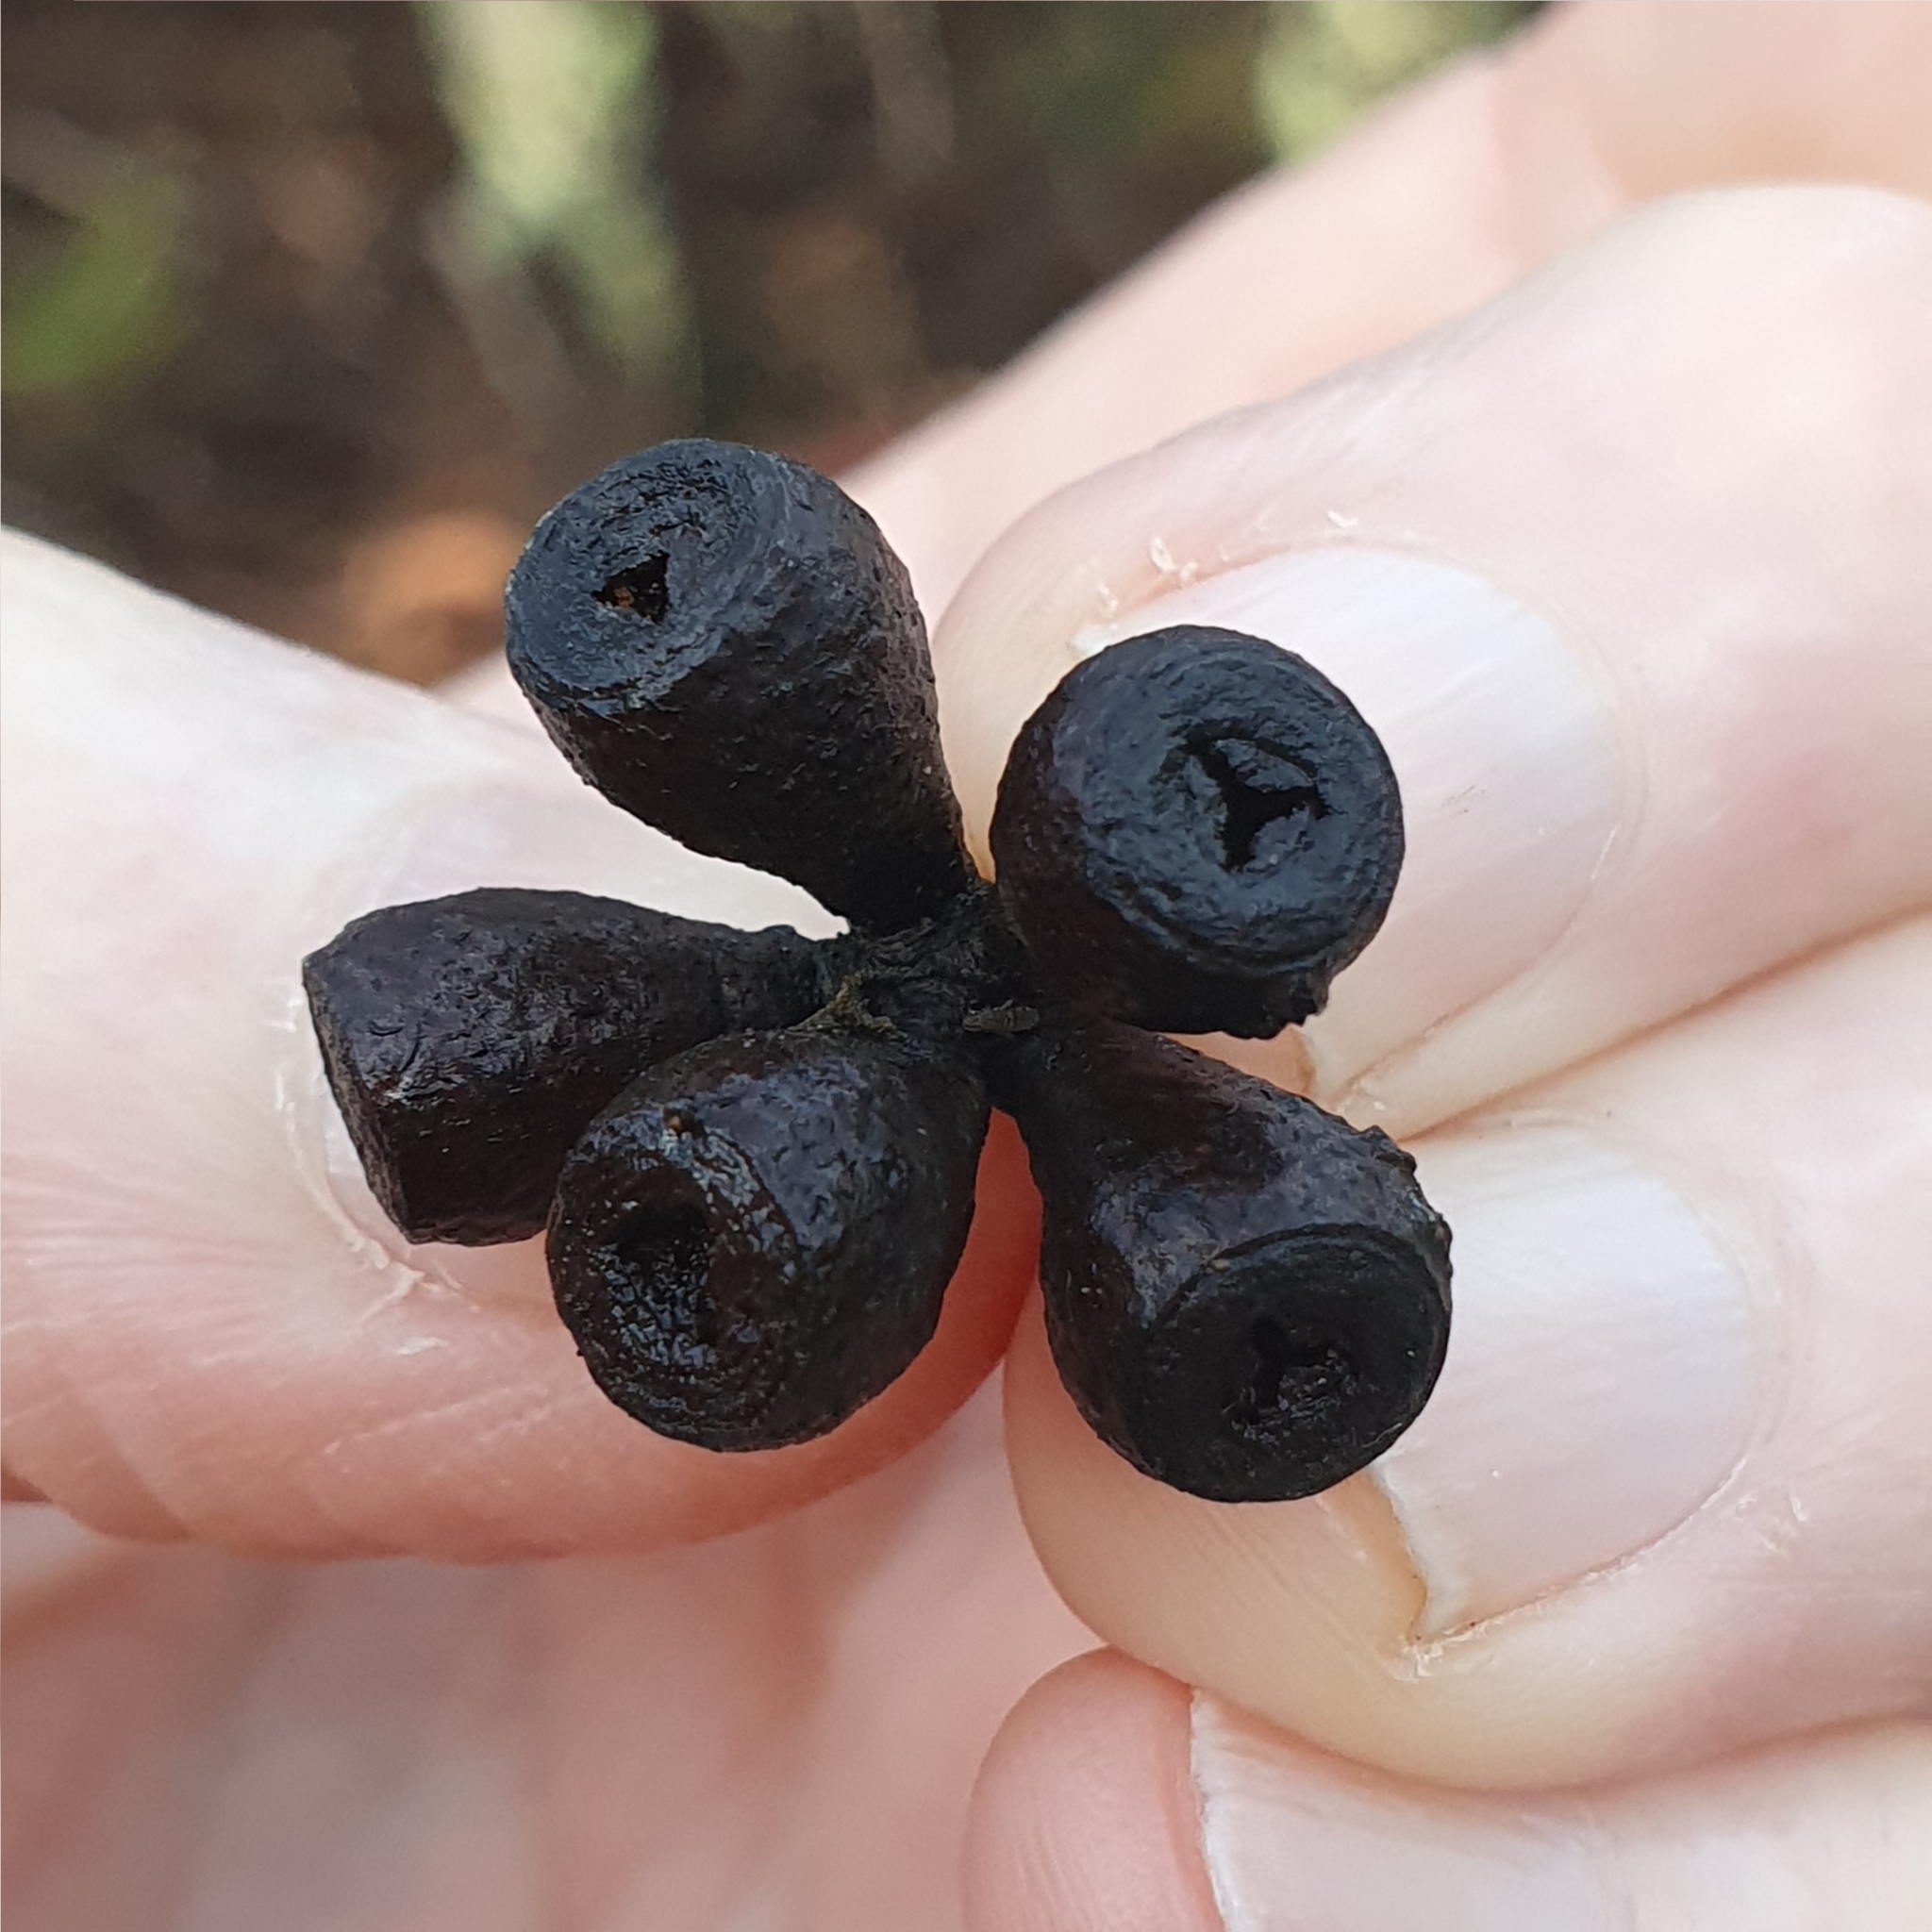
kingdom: Plantae
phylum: Tracheophyta
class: Magnoliopsida
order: Myrtales
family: Myrtaceae
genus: Eucalyptus
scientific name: Eucalyptus sieberi
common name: Black-ash
